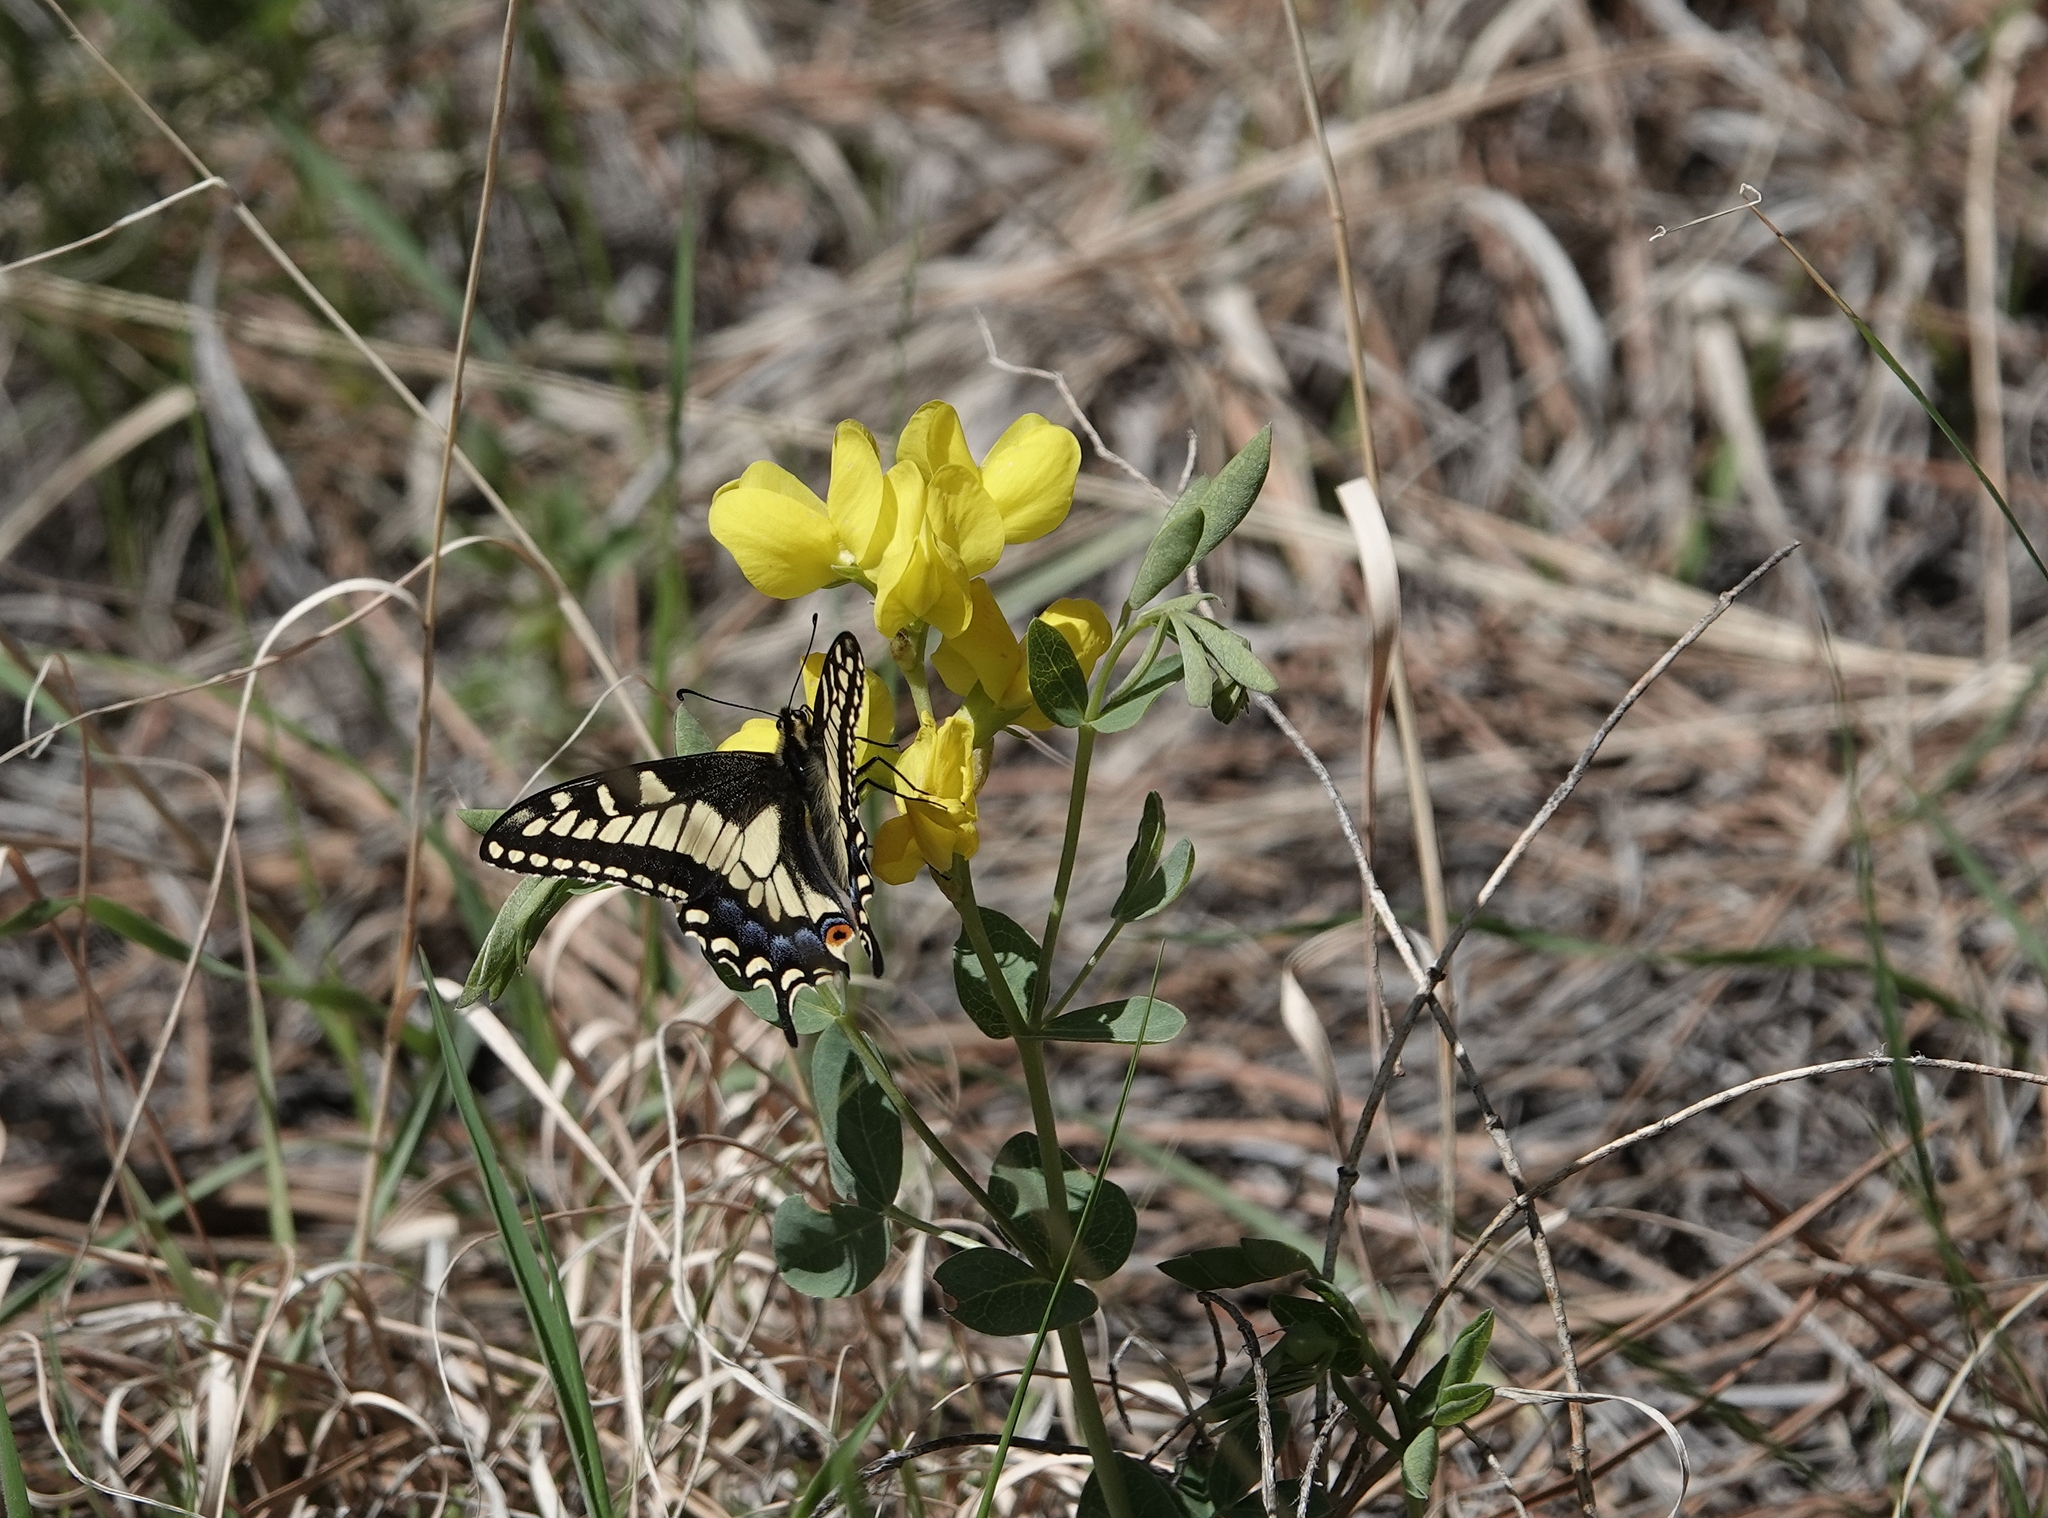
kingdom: Animalia
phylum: Arthropoda
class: Insecta
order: Lepidoptera
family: Papilionidae
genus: Papilio
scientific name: Papilio zelicaon
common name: Anise swallowtail
